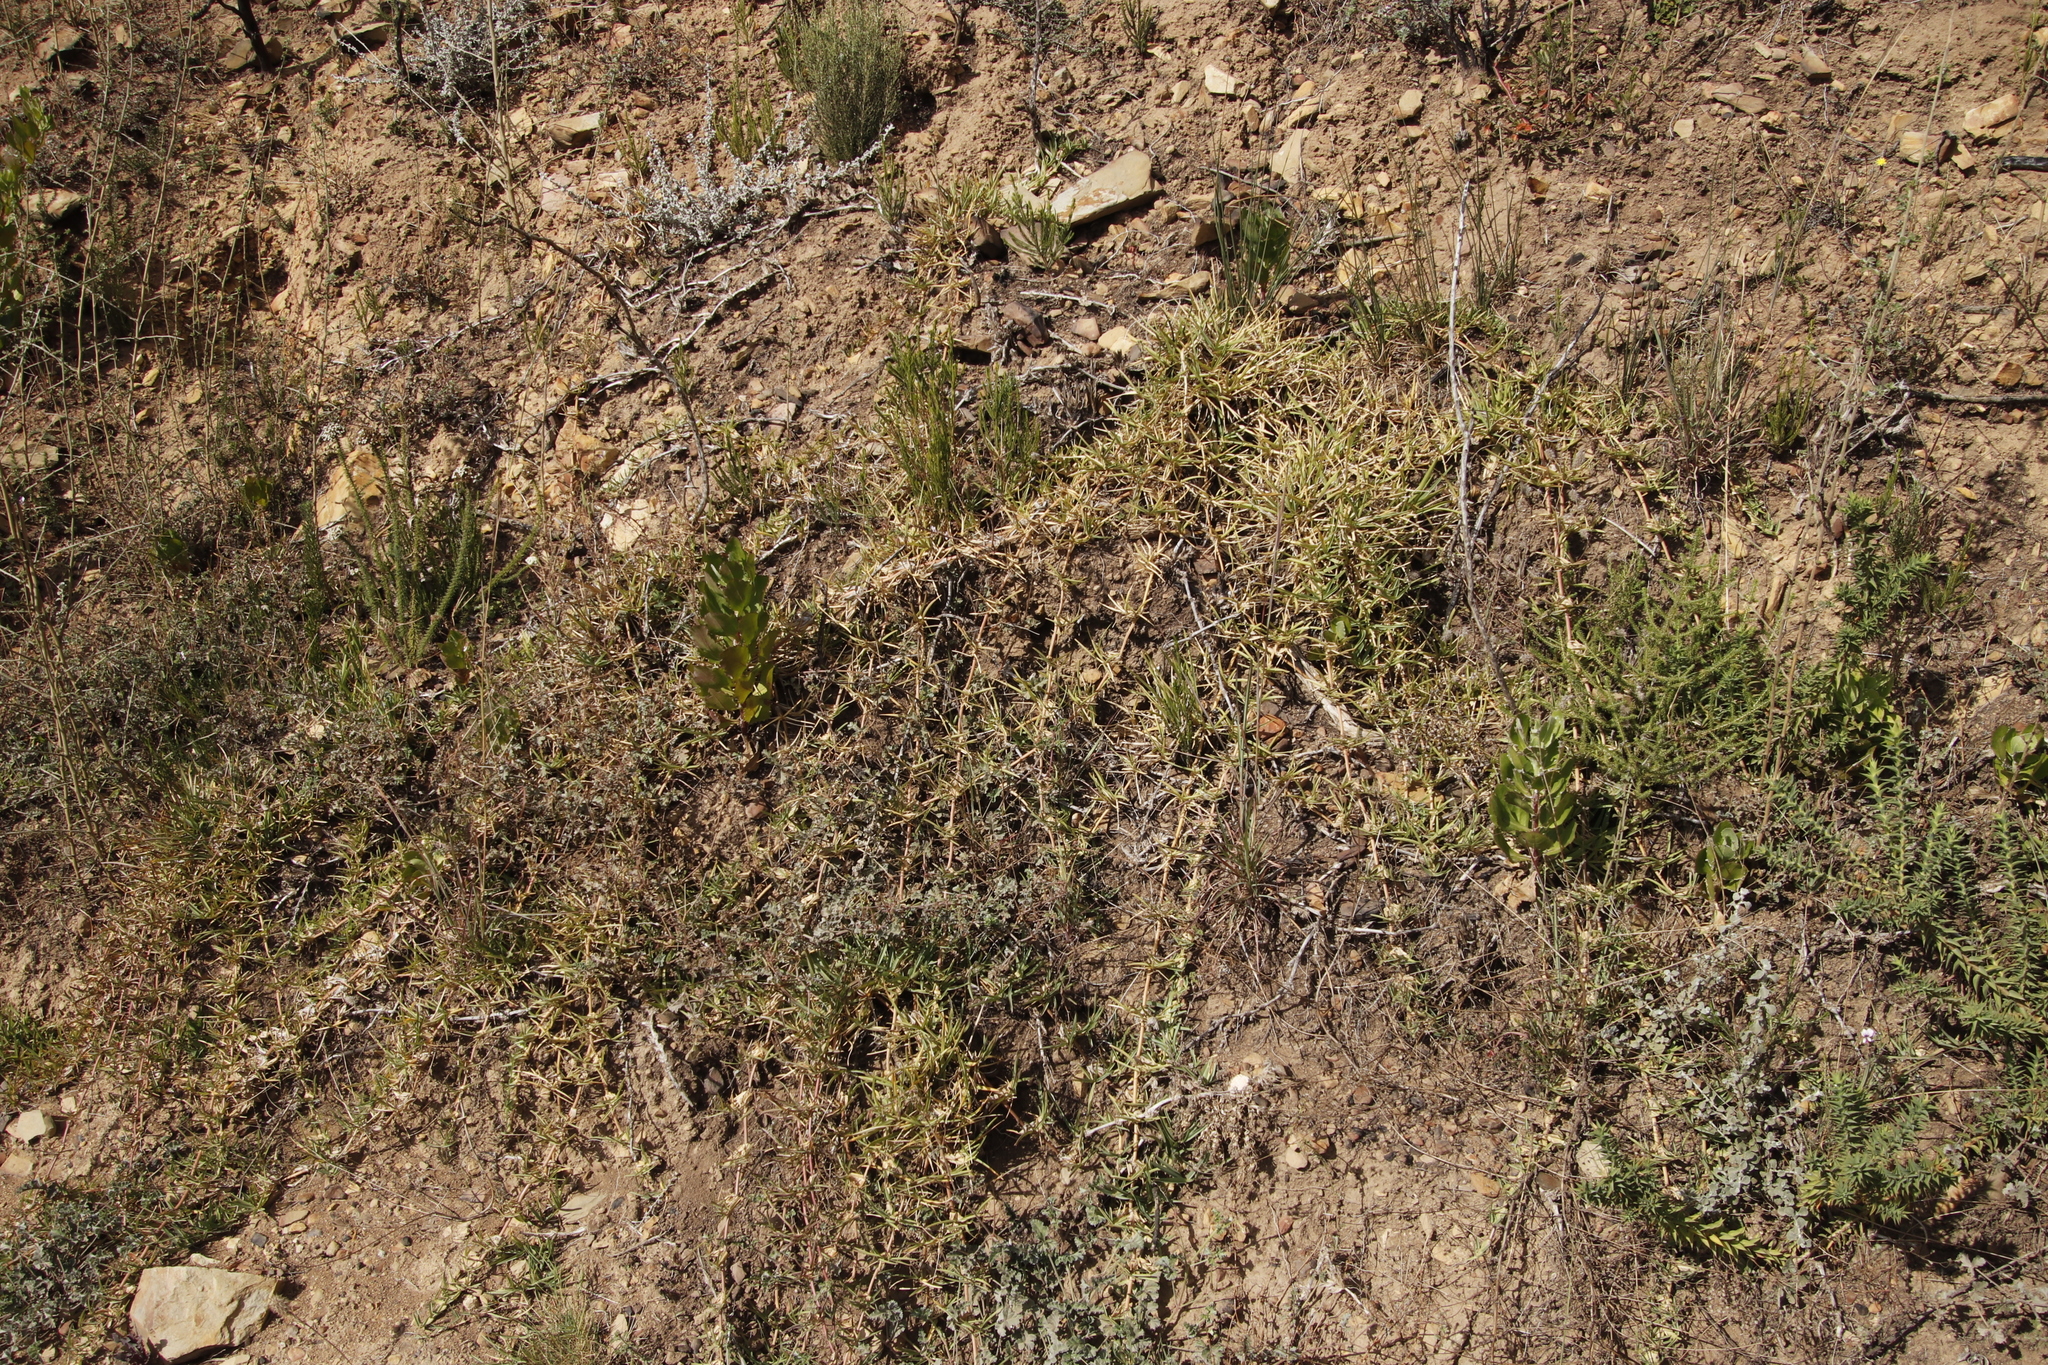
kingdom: Plantae
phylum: Tracheophyta
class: Liliopsida
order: Poales
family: Poaceae
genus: Stenotaphrum
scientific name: Stenotaphrum secundatum
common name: St. augustine grass
